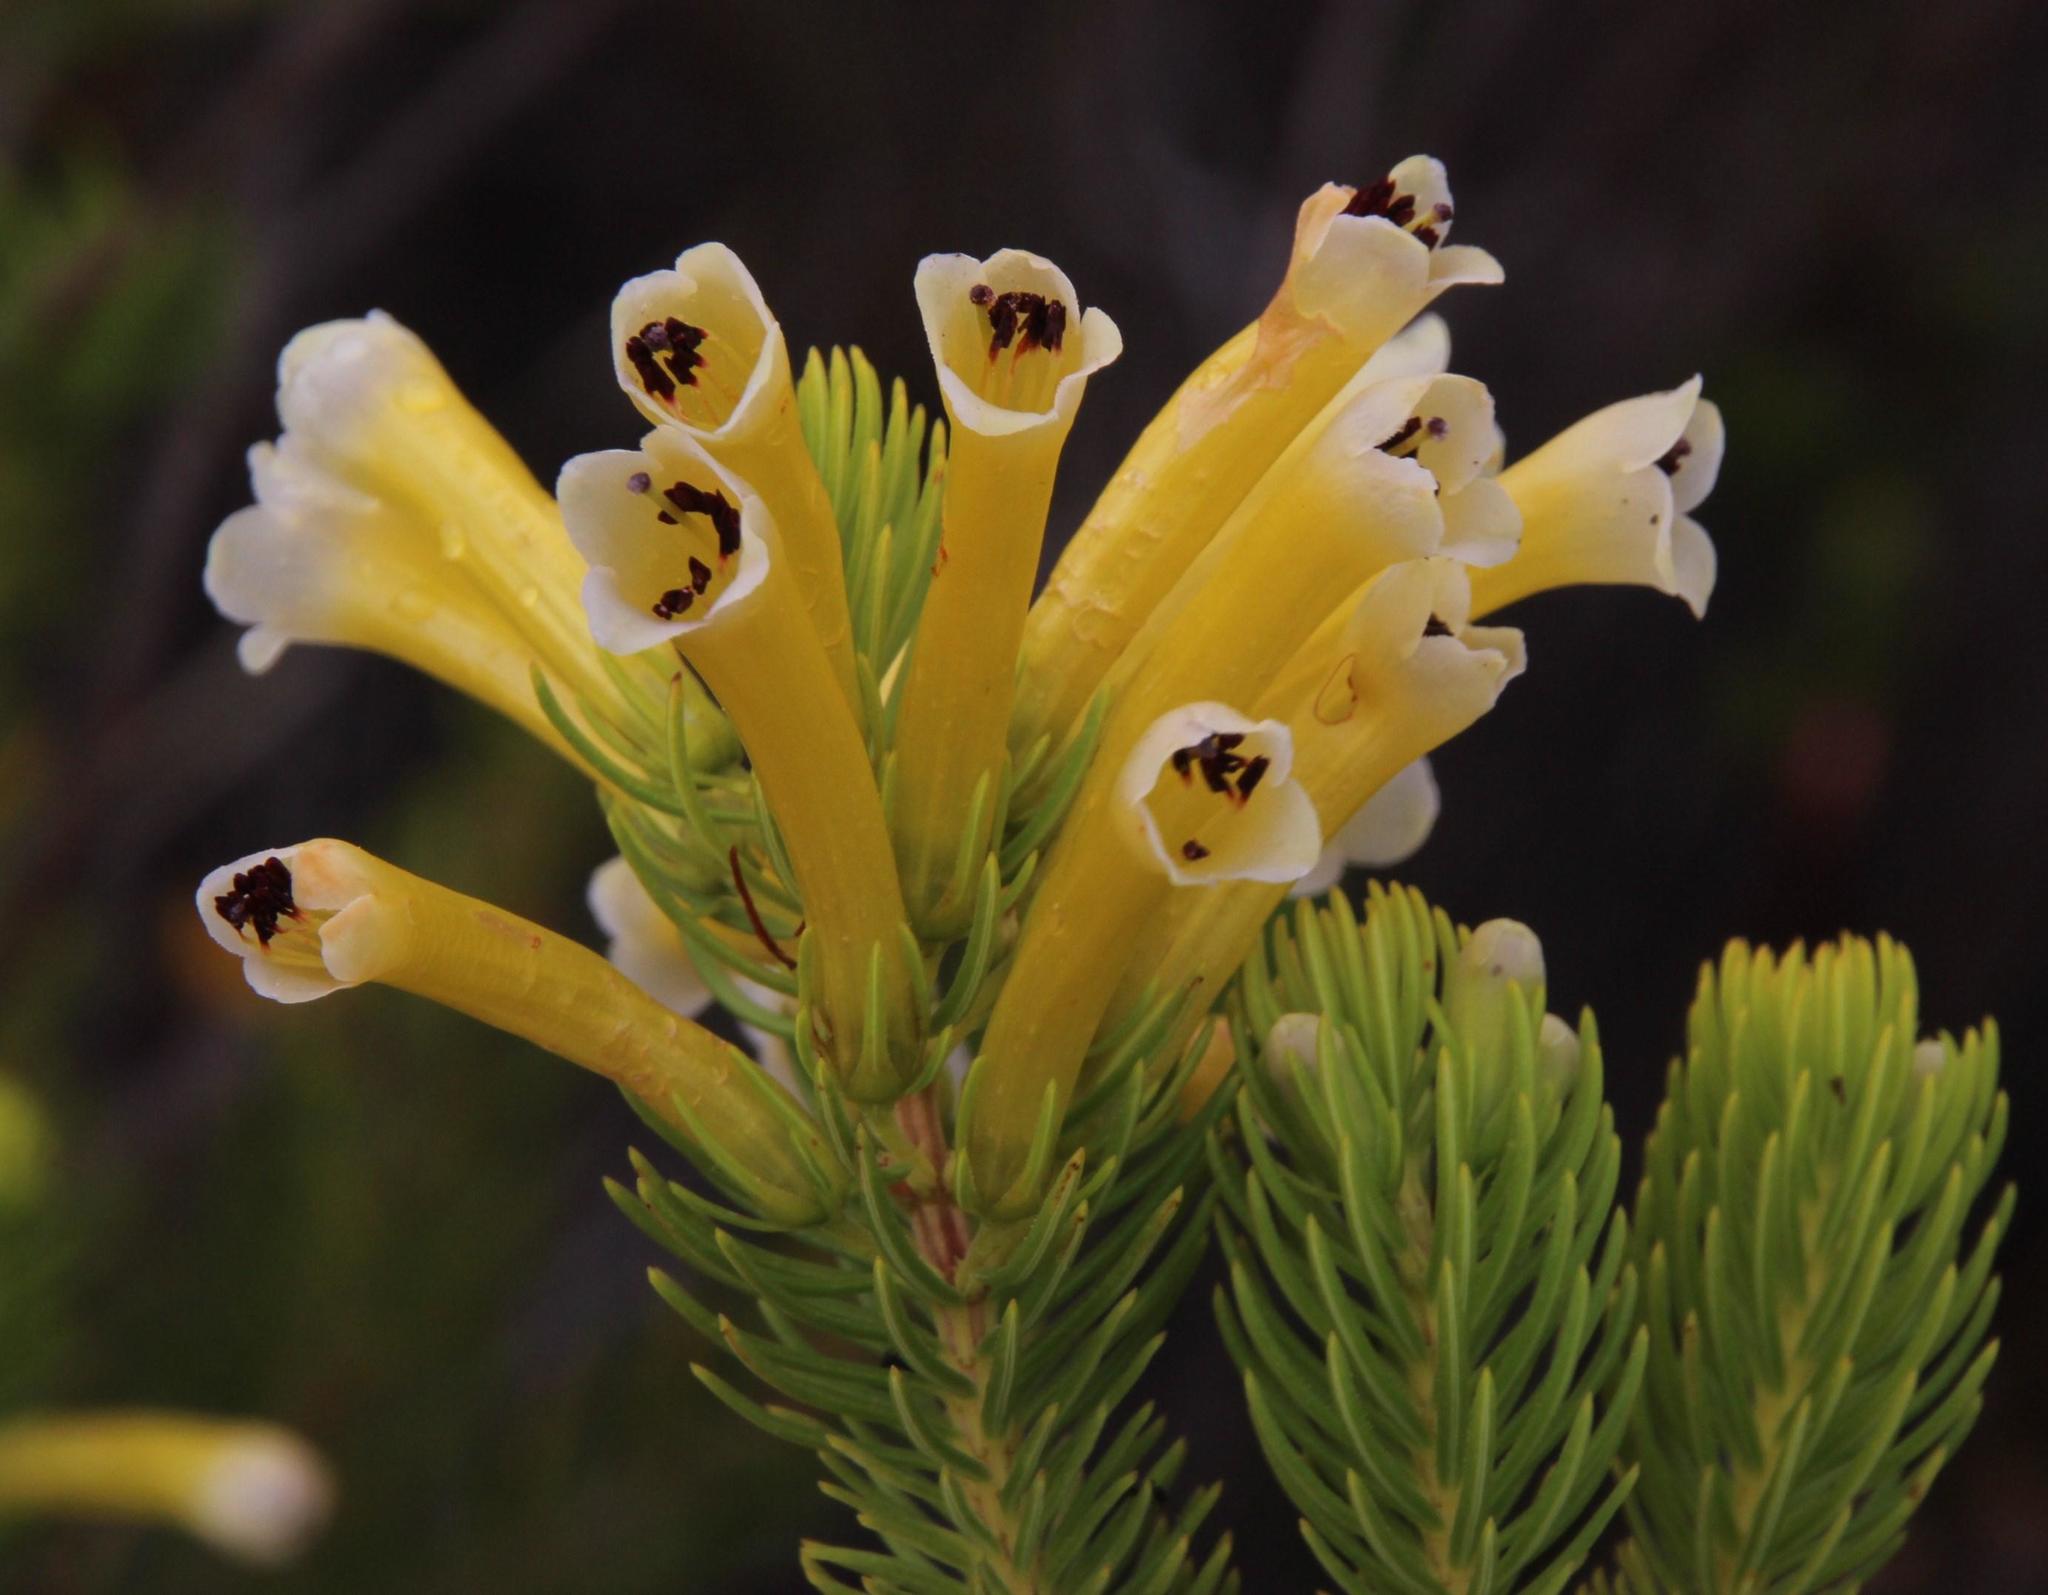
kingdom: Plantae
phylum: Tracheophyta
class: Magnoliopsida
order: Ericales
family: Ericaceae
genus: Erica
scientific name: Erica pinea
